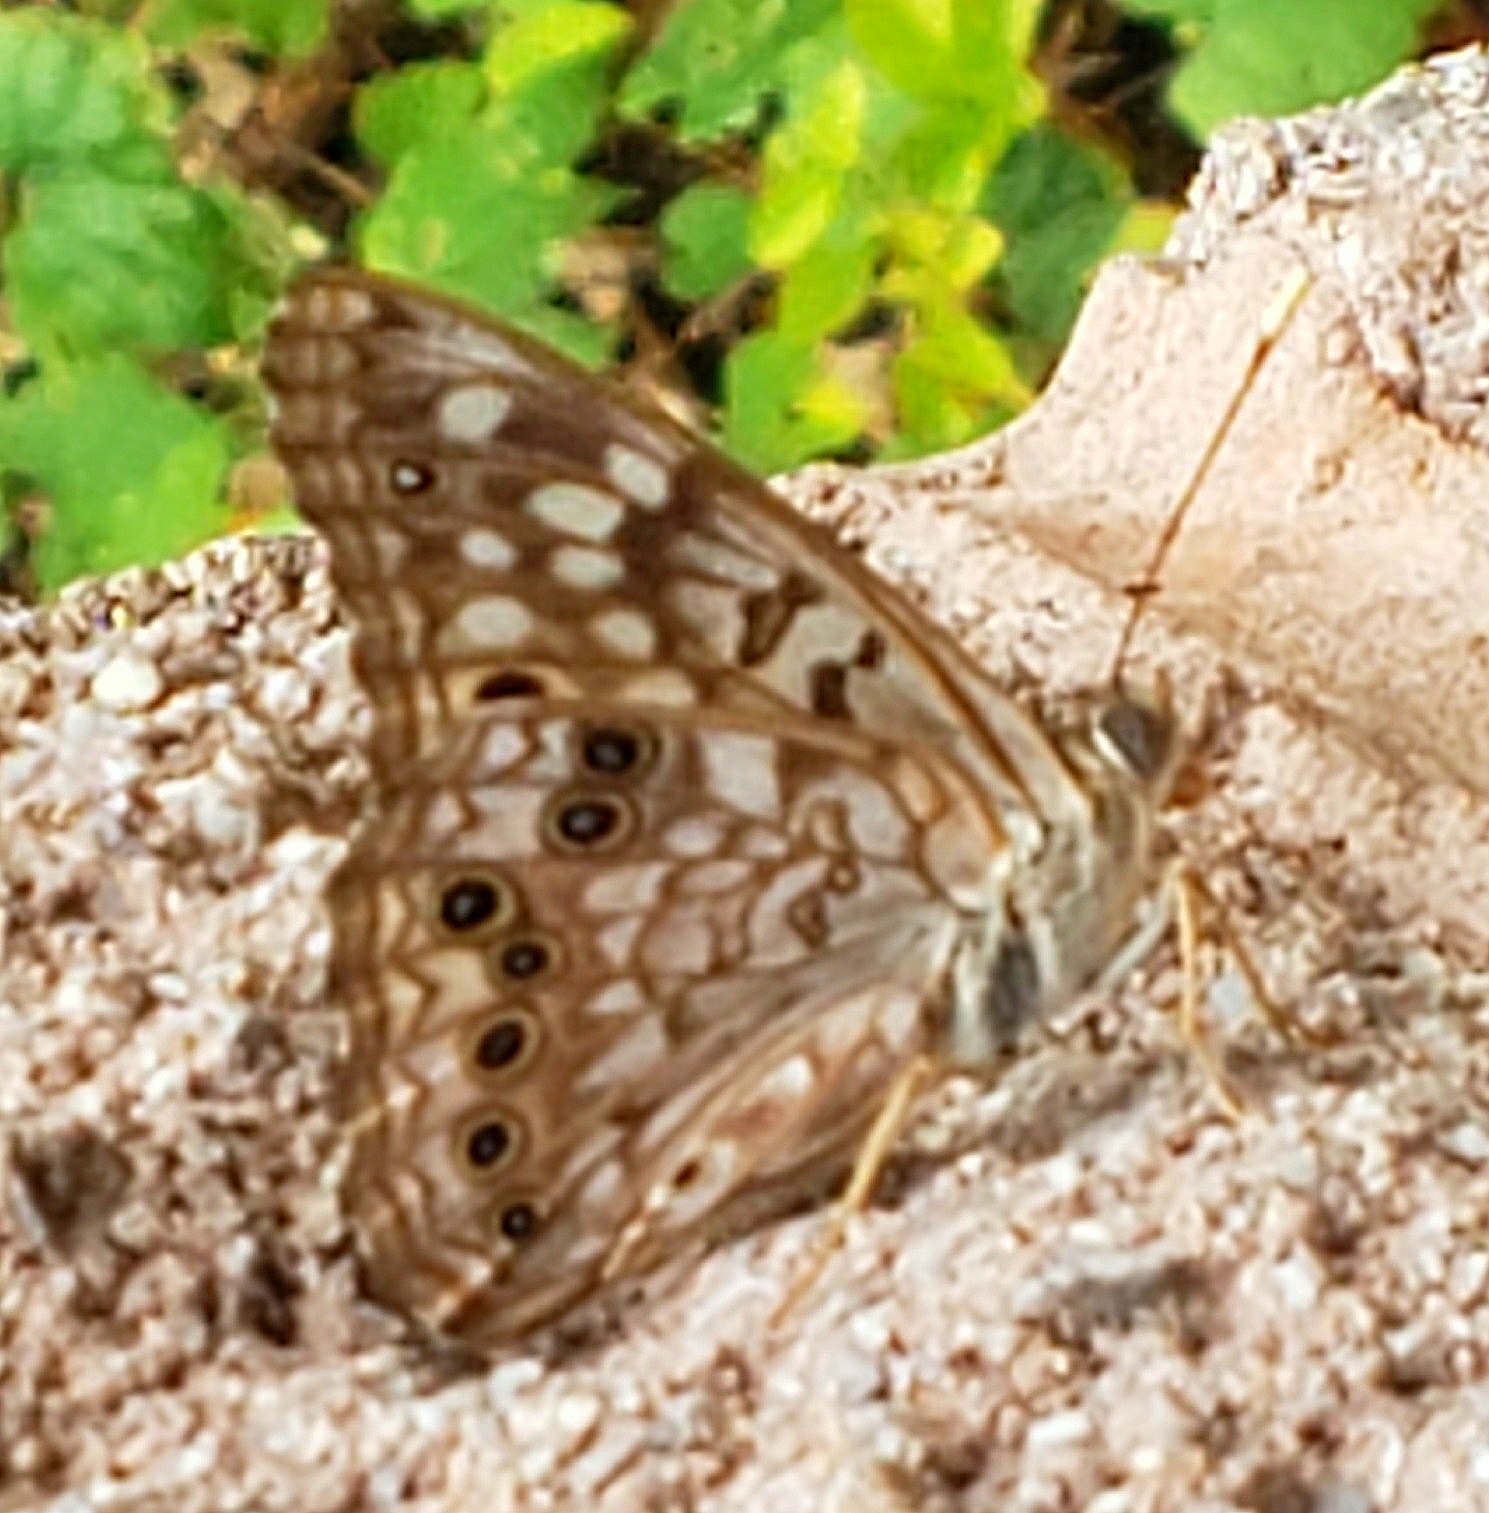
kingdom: Animalia
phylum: Arthropoda
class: Insecta
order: Lepidoptera
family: Nymphalidae
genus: Asterocampa
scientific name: Asterocampa celtis
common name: Hackberry emperor
